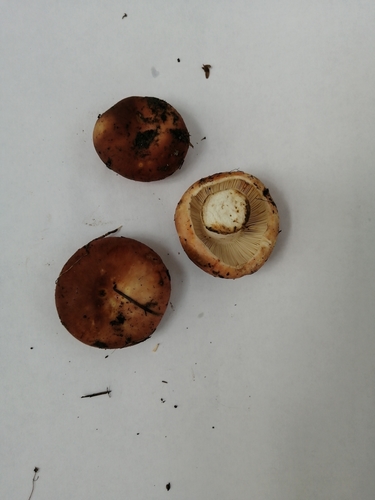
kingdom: Fungi
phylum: Basidiomycota
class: Agaricomycetes
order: Russulales
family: Russulaceae
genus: Russula
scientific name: Russula vesca
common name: Bare-toothed russula
